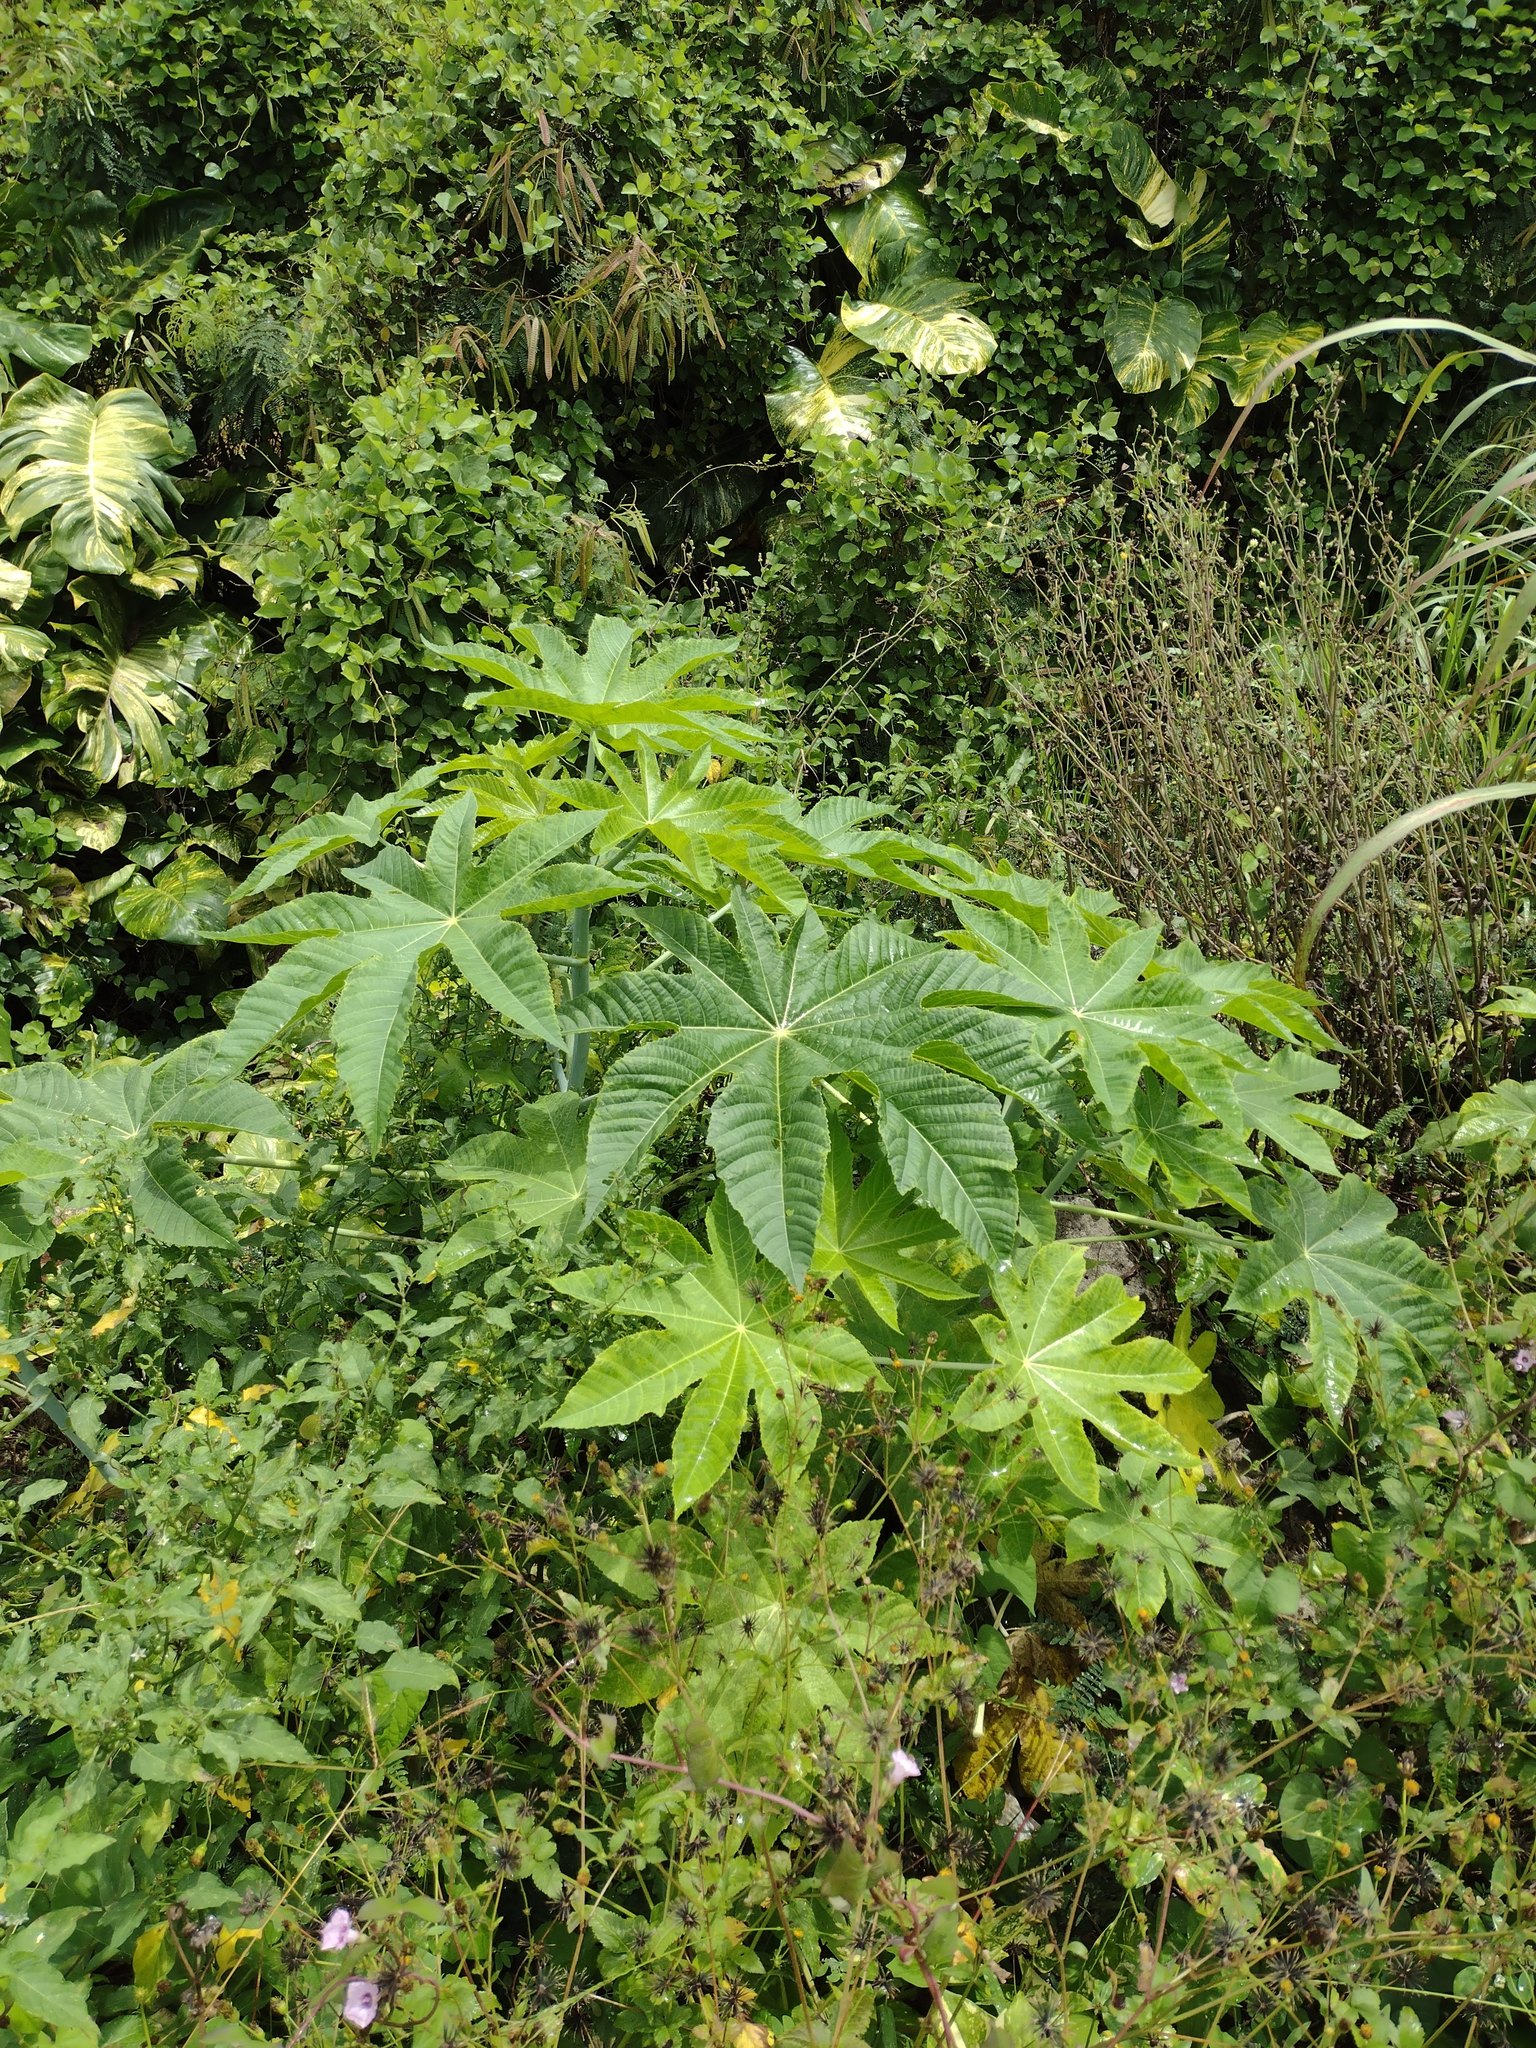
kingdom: Plantae
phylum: Tracheophyta
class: Magnoliopsida
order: Malpighiales
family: Euphorbiaceae
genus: Ricinus
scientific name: Ricinus communis
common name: Castor-oil-plant
